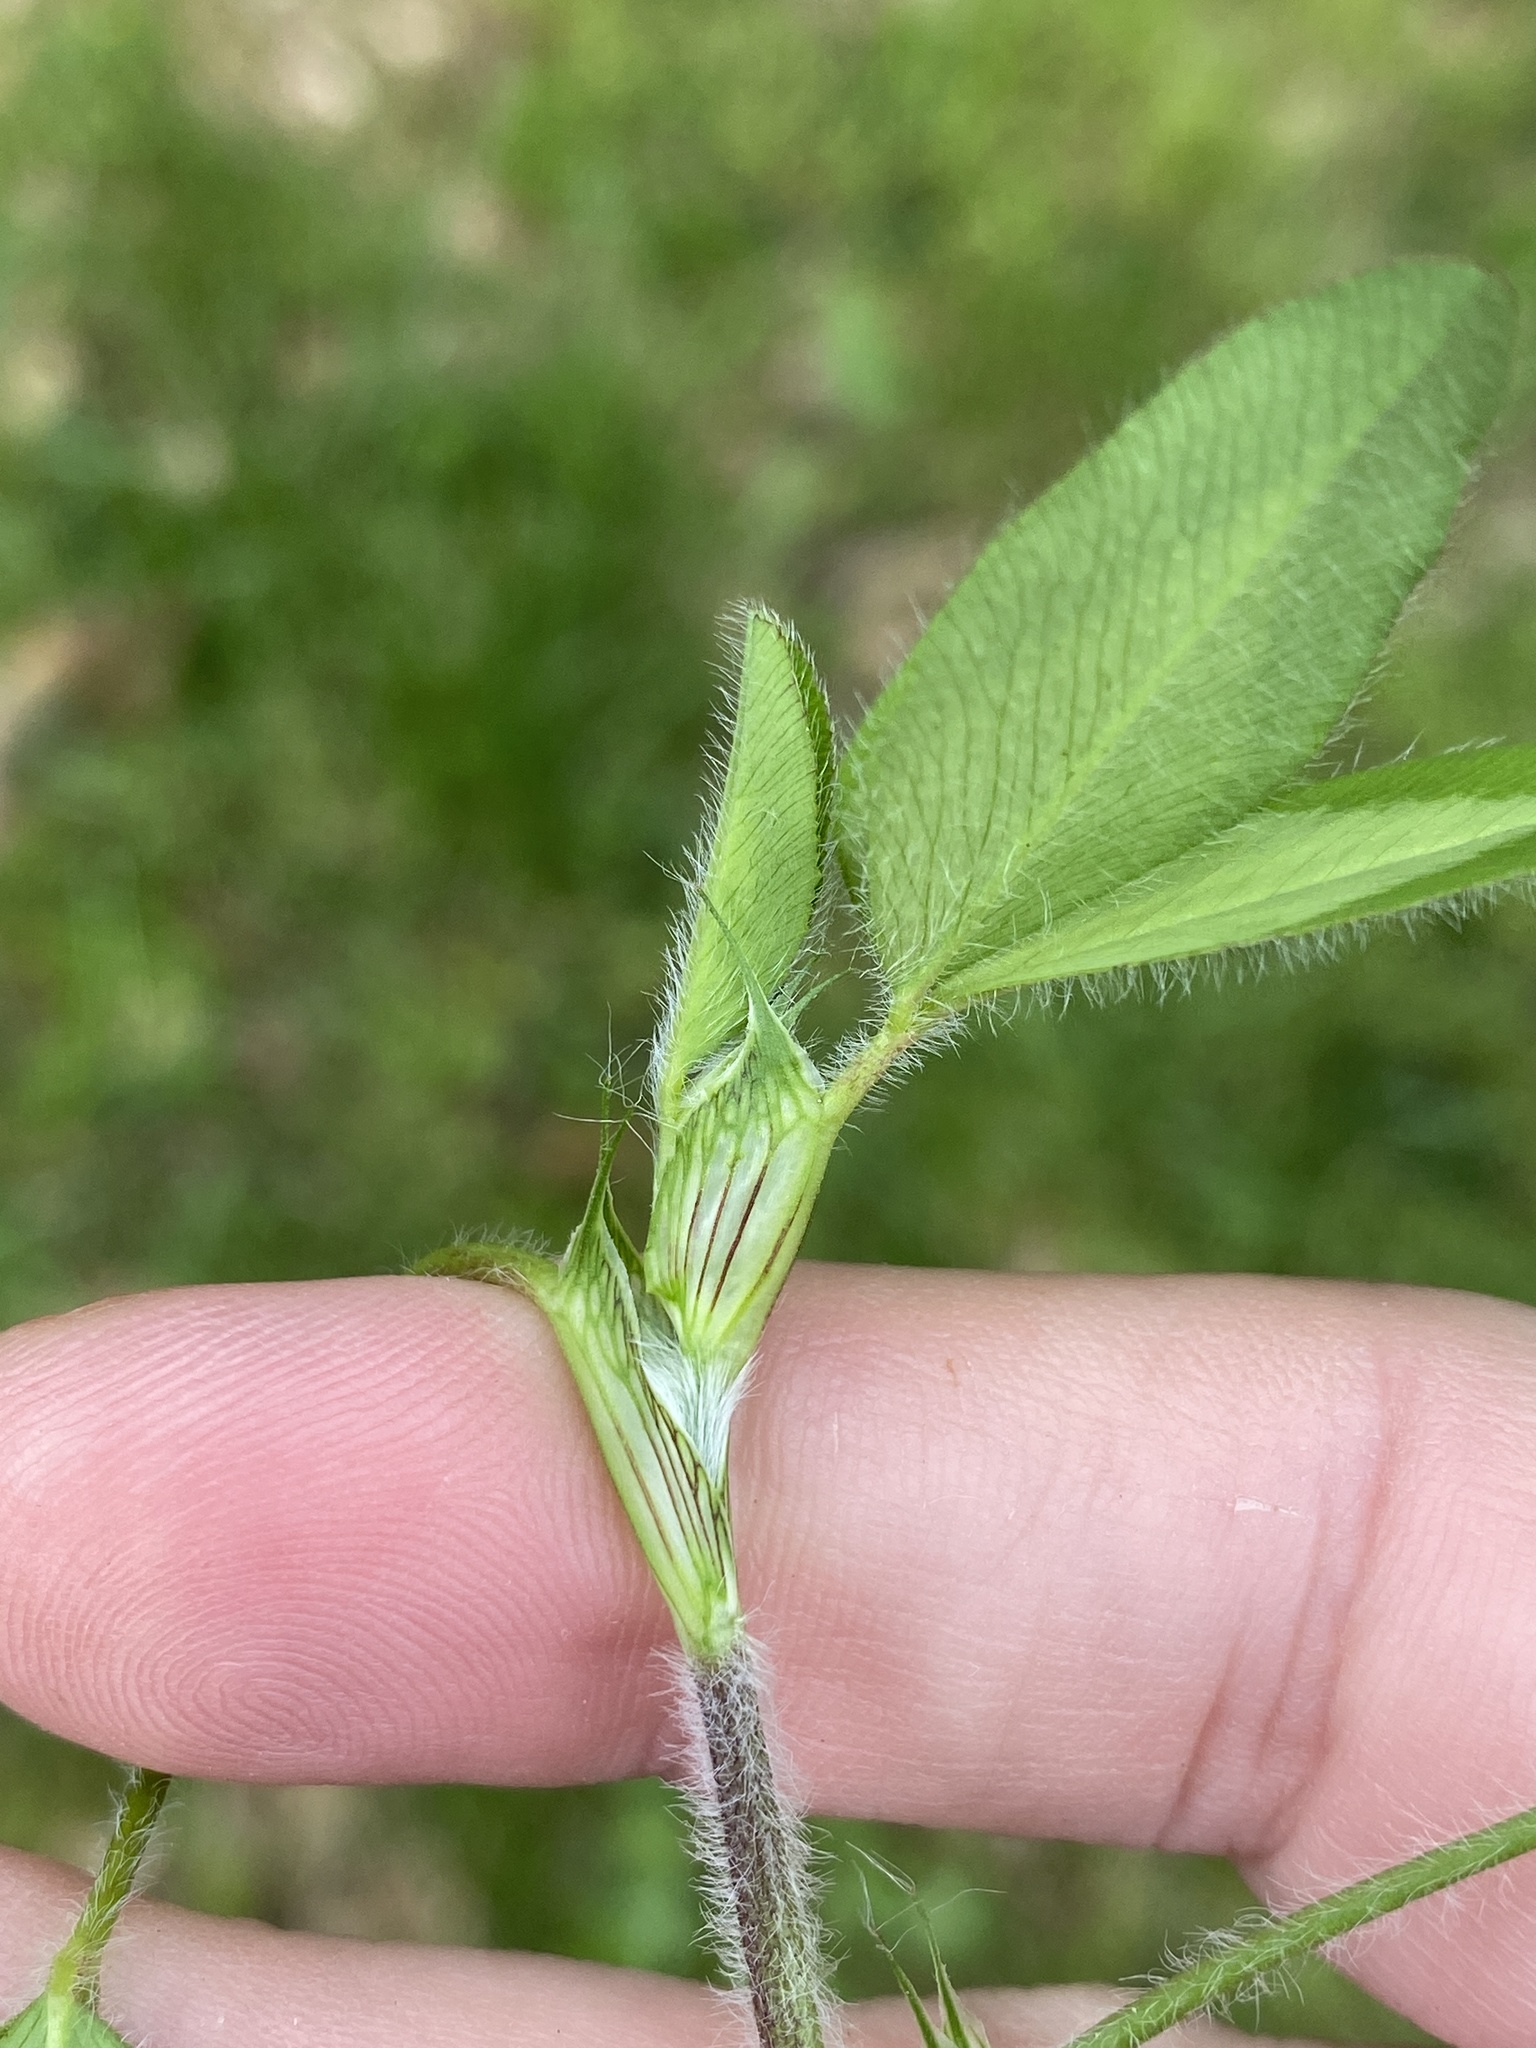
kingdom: Plantae
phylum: Tracheophyta
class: Magnoliopsida
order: Fabales
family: Fabaceae
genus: Trifolium
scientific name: Trifolium pratense
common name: Red clover
